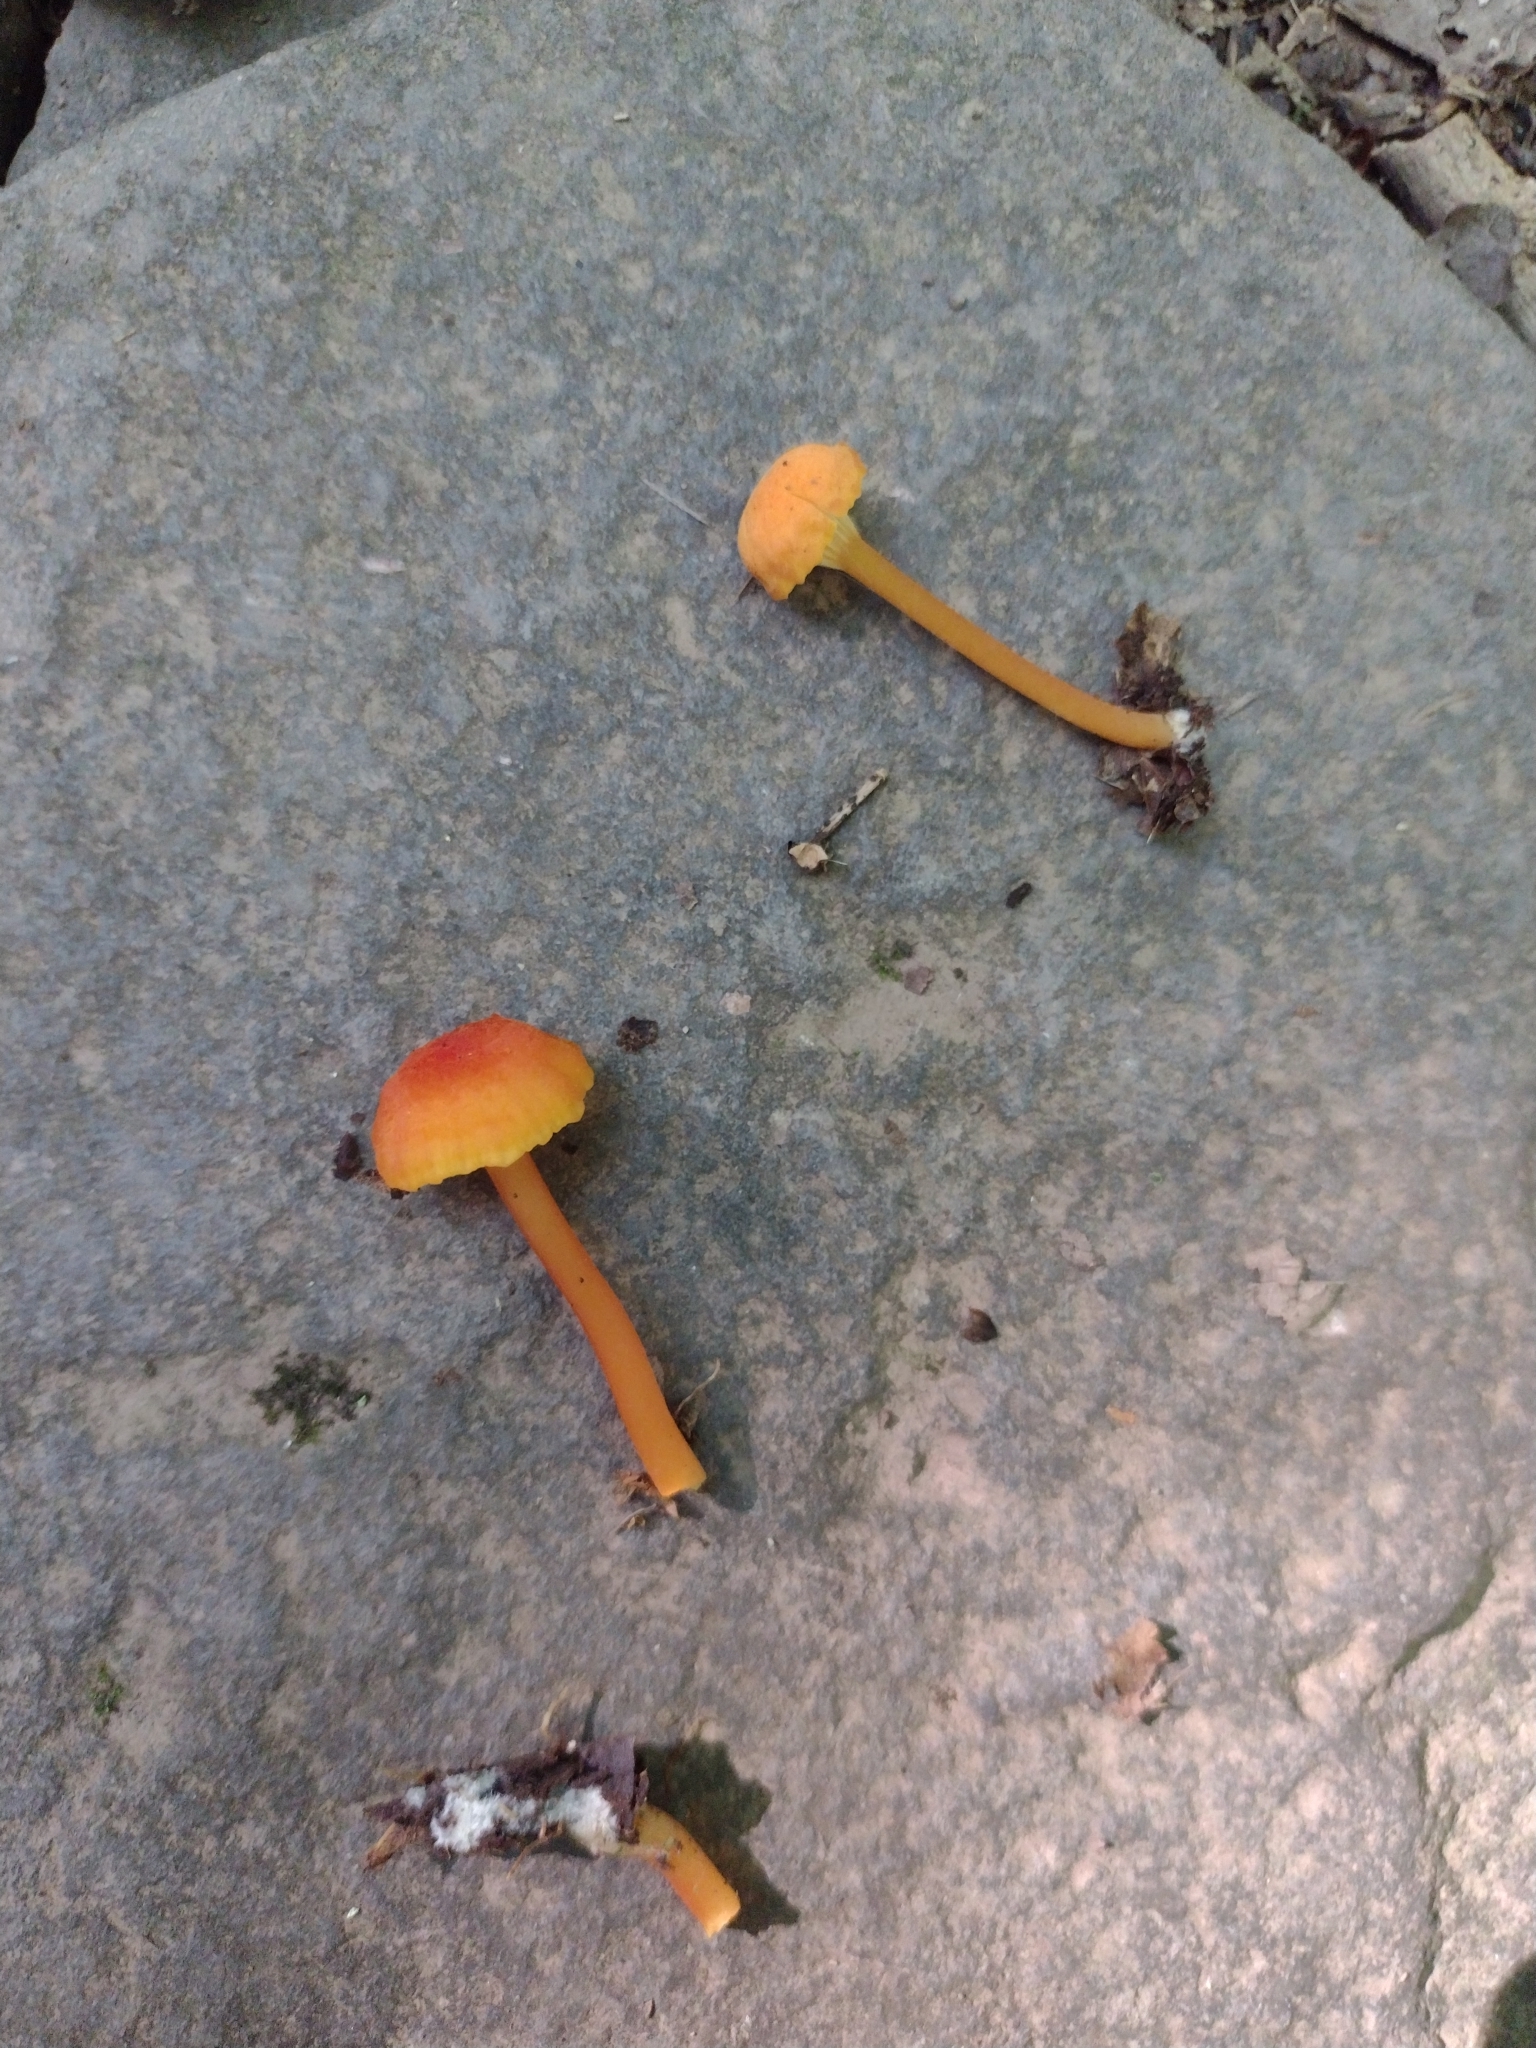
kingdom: Fungi
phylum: Basidiomycota
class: Agaricomycetes
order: Agaricales
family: Hygrophoraceae
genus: Hygrocybe
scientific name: Hygrocybe cantharellus
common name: Goblet waxcap
